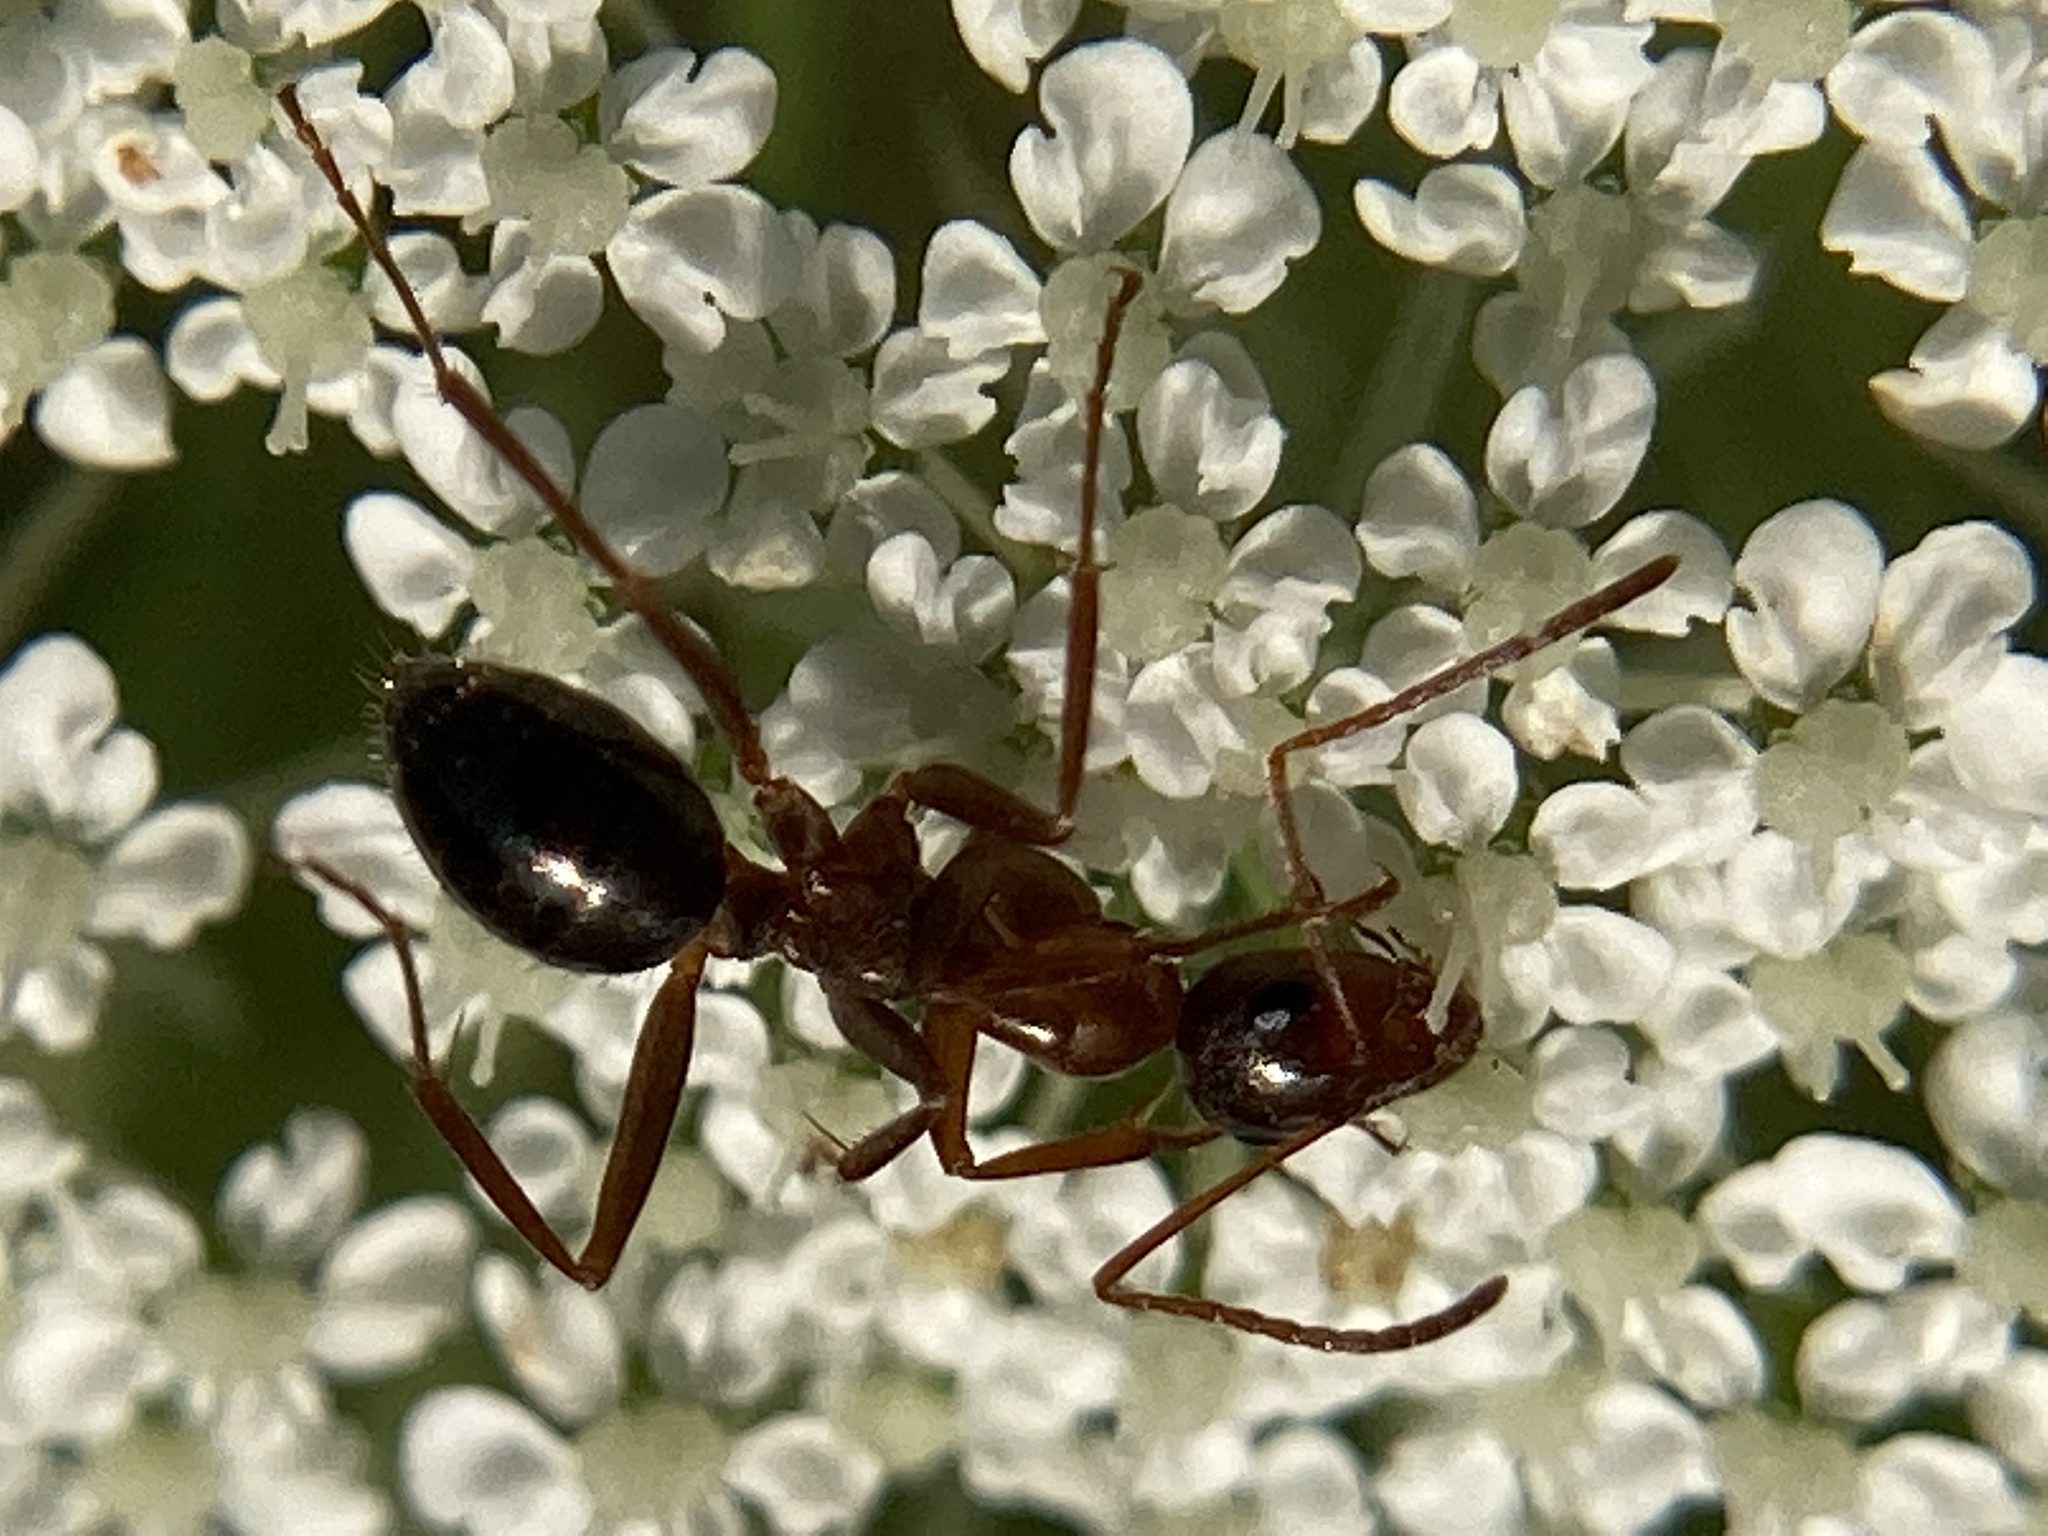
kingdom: Animalia
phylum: Arthropoda
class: Insecta
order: Hymenoptera
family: Formicidae
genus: Formica
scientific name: Formica pallidefulva
